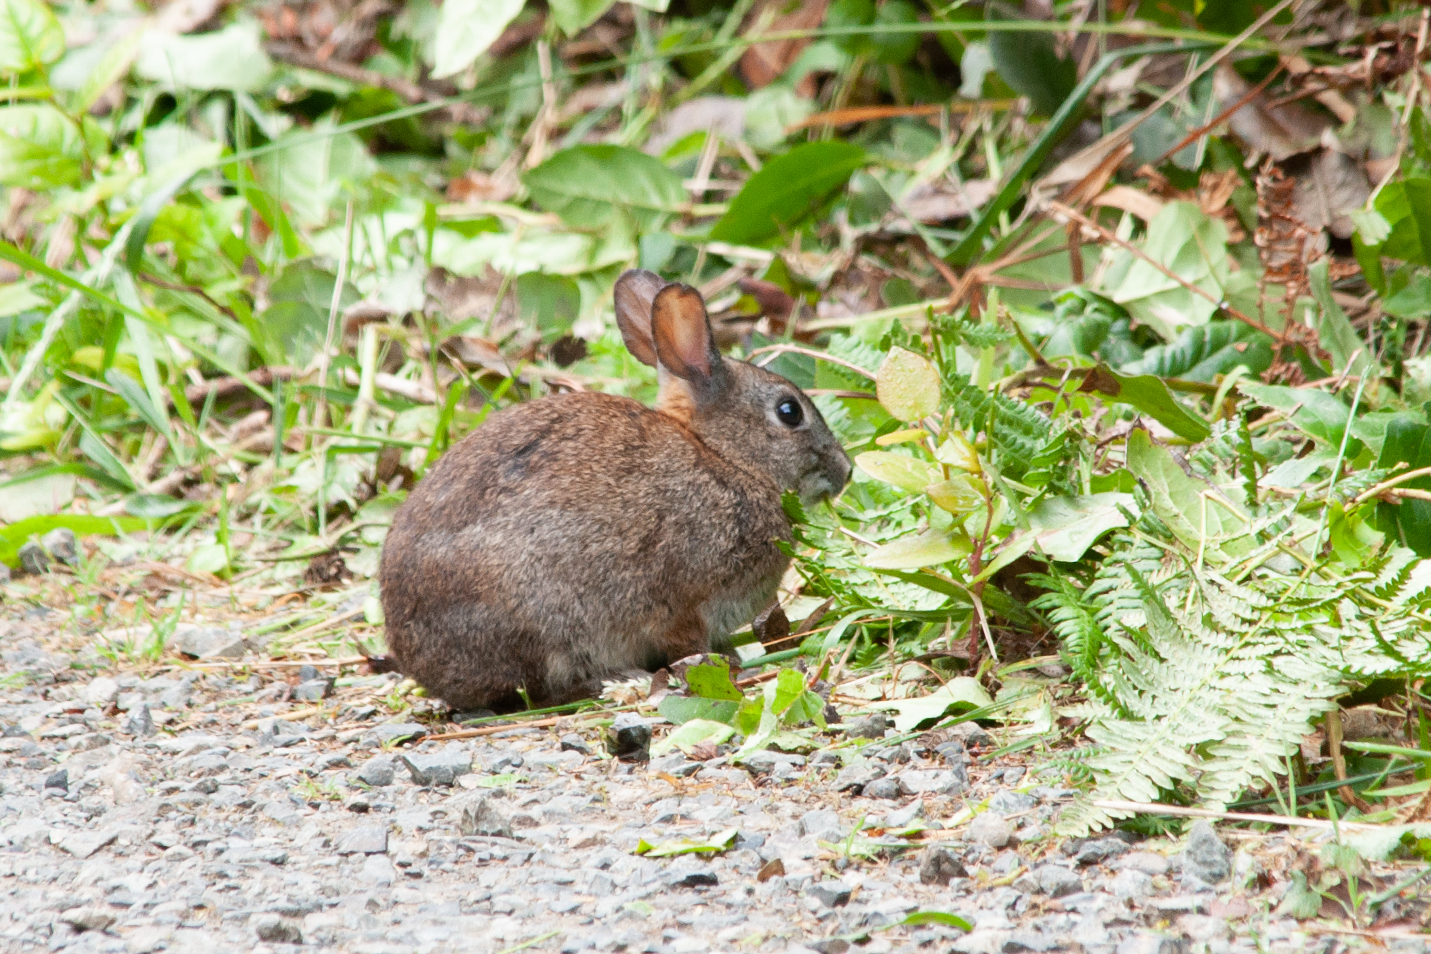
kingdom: Animalia
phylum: Chordata
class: Mammalia
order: Lagomorpha
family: Leporidae
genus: Sylvilagus
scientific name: Sylvilagus bachmani
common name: Brush rabbit
